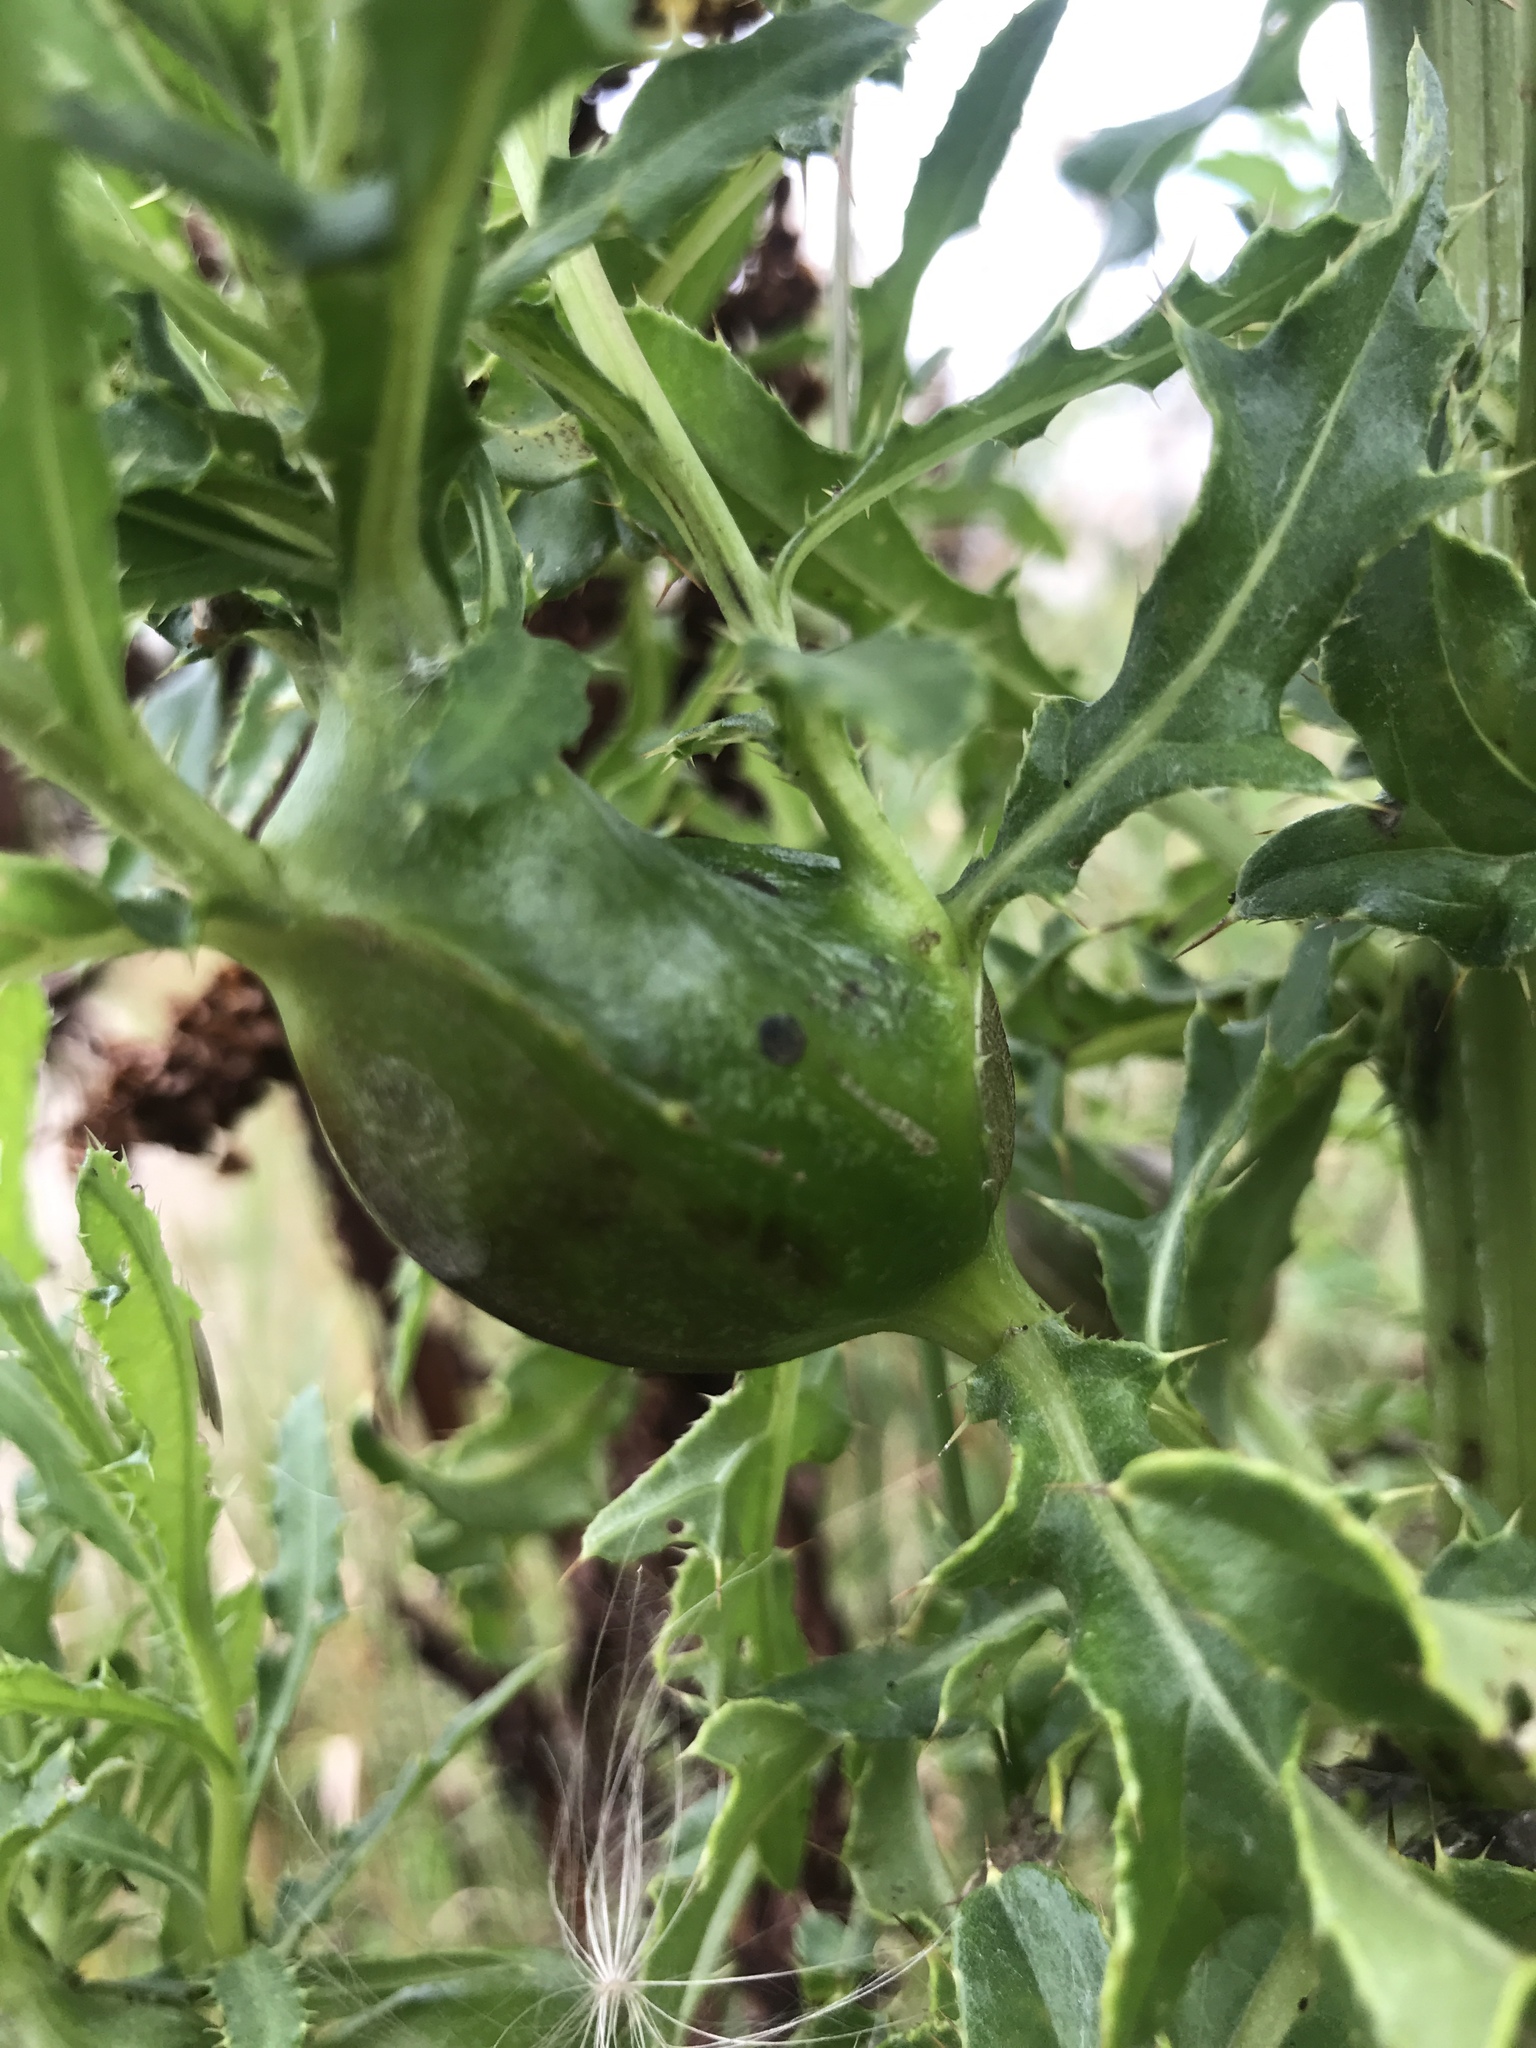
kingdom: Animalia
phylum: Arthropoda
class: Insecta
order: Diptera
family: Tephritidae
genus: Urophora
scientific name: Urophora cardui
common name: Fruit fly
